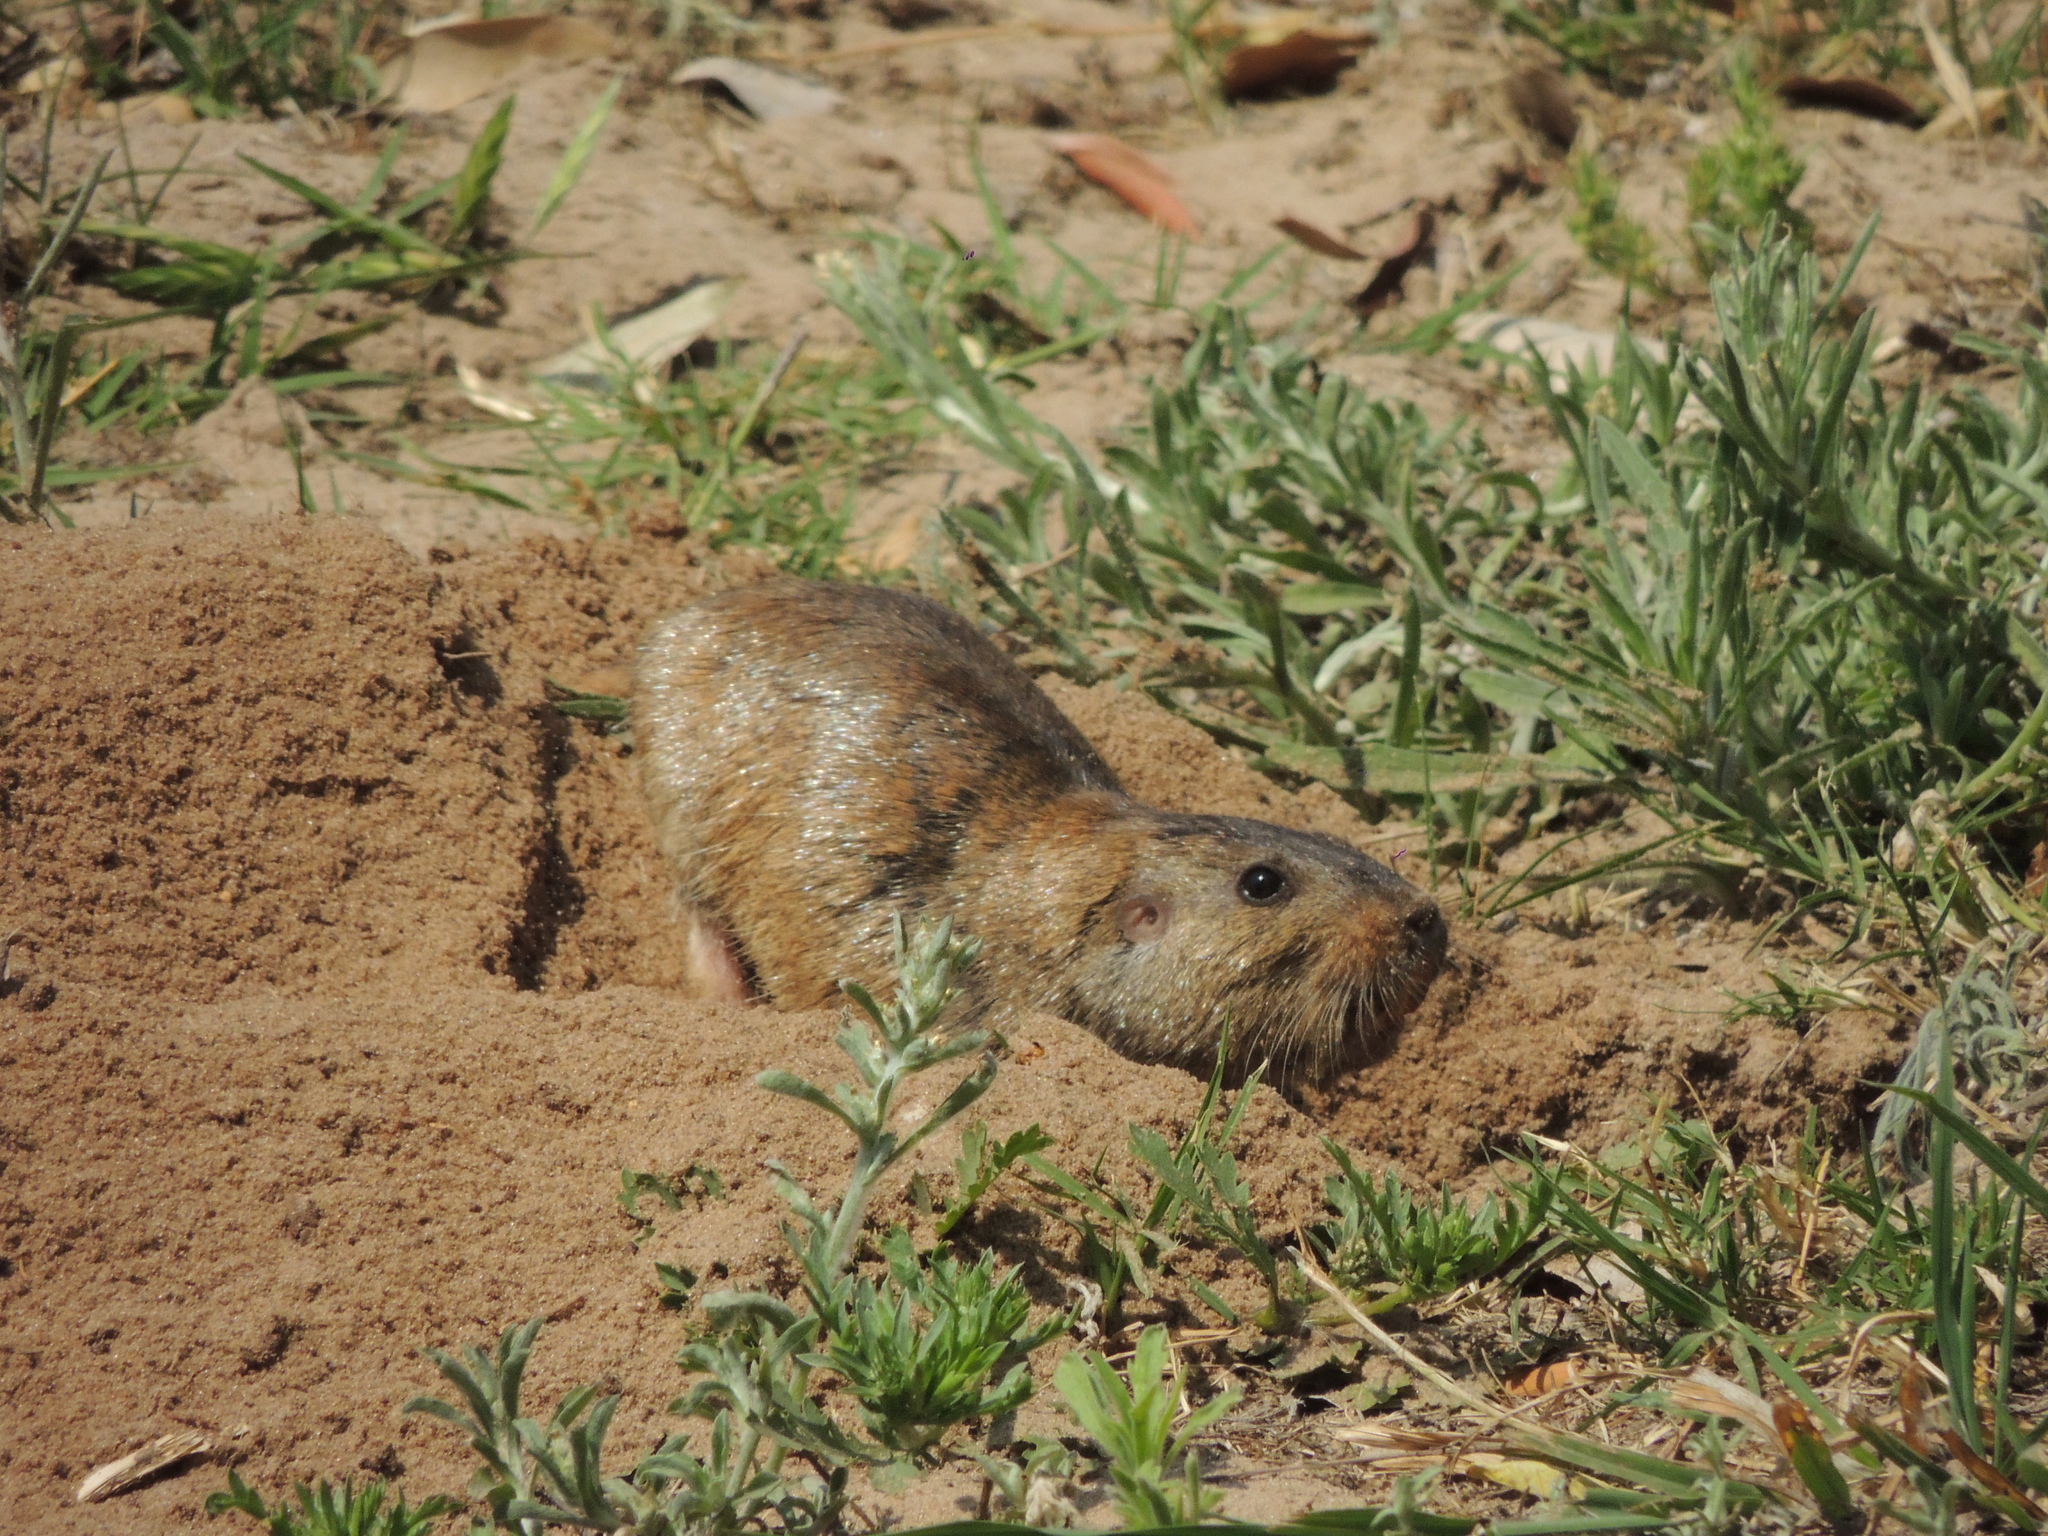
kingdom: Animalia
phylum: Chordata
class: Mammalia
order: Rodentia
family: Ctenomyidae
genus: Ctenomys
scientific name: Ctenomys yolandae
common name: Yolanda's tuco-tuco
